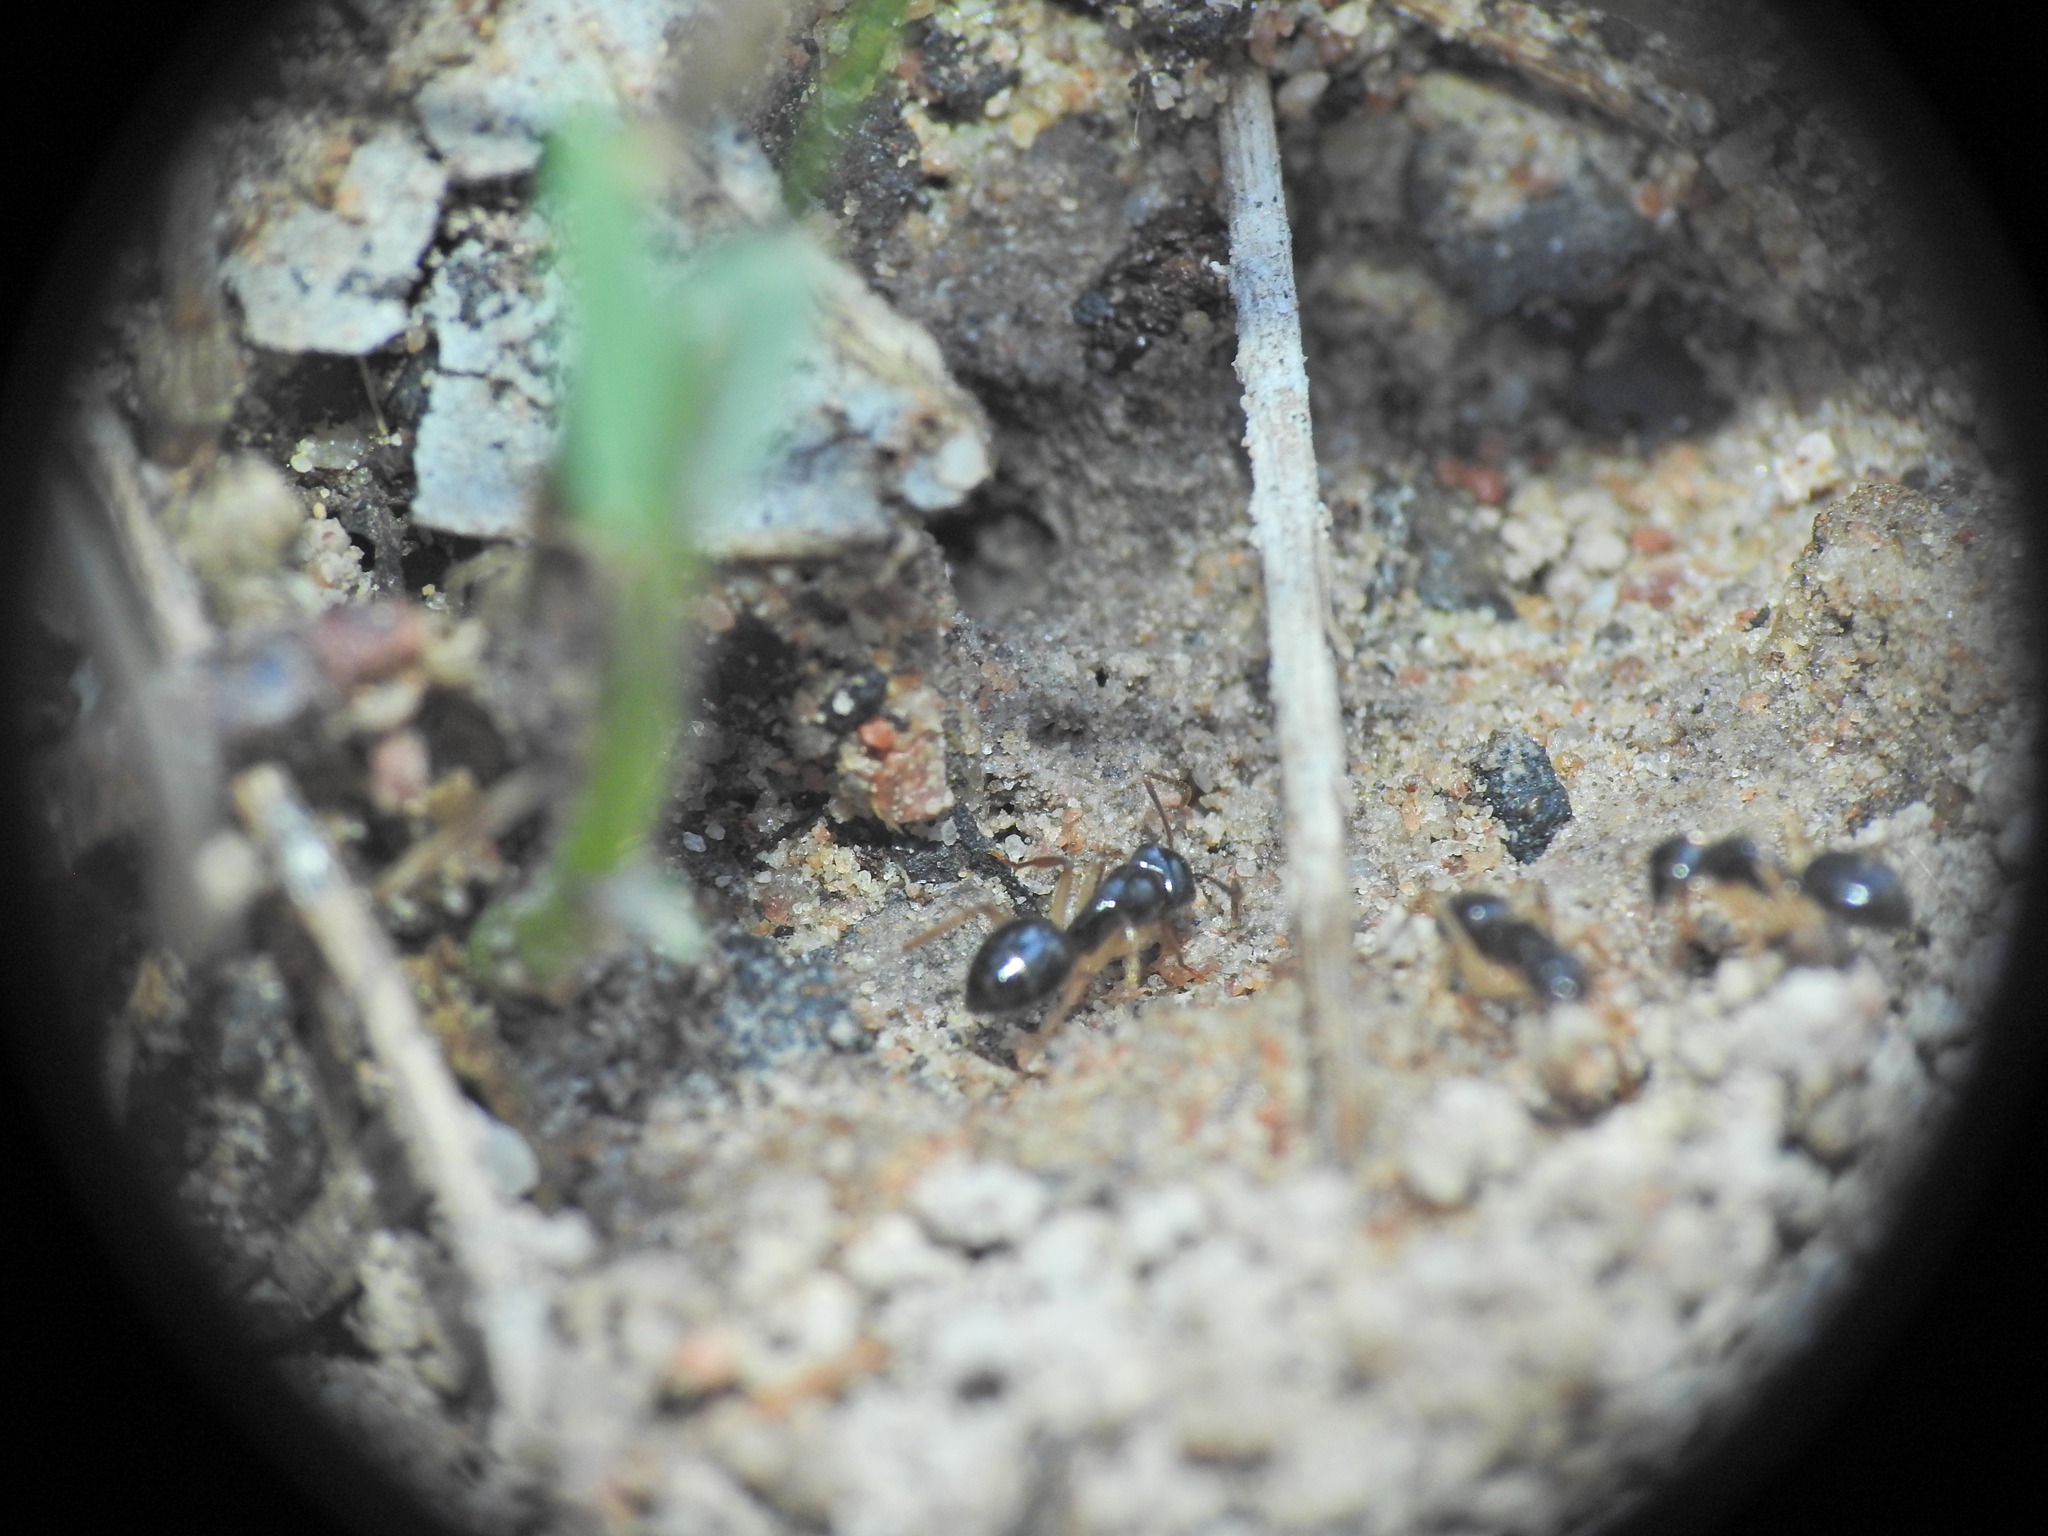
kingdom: Animalia
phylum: Arthropoda
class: Insecta
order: Hymenoptera
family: Formicidae
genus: Camponotus
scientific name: Camponotus lownei
